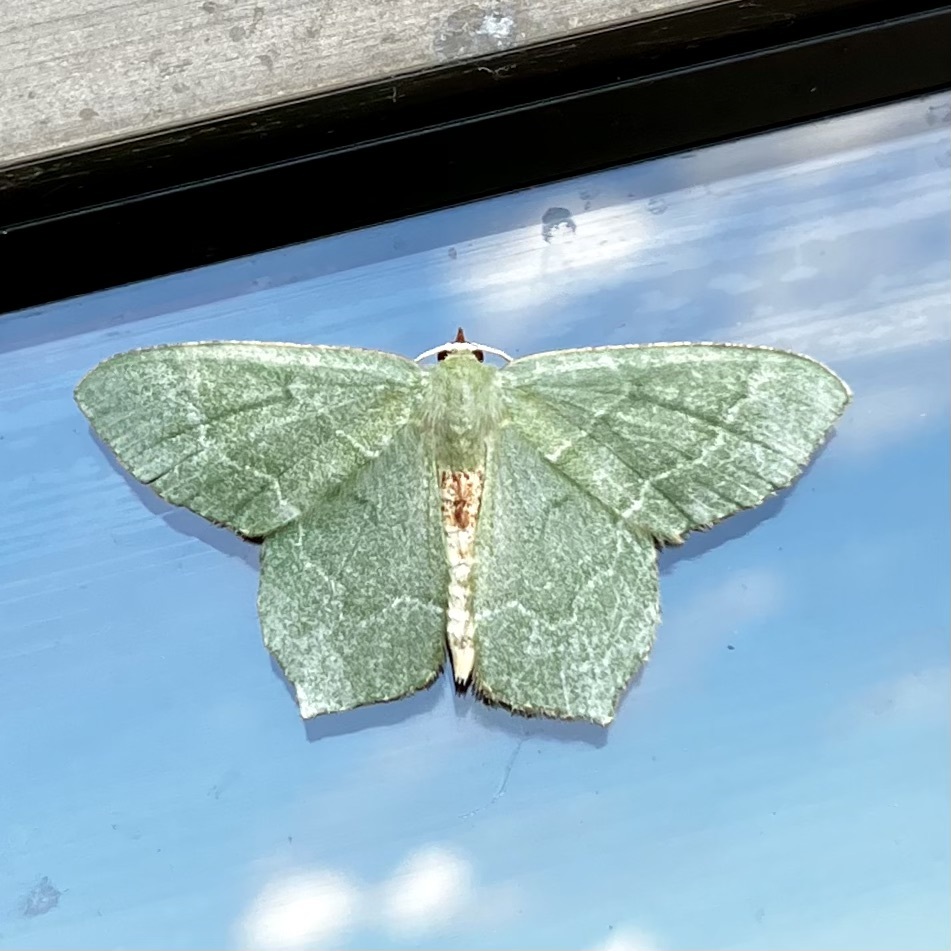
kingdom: Animalia
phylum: Arthropoda
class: Insecta
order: Lepidoptera
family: Geometridae
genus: Hemithea
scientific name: Hemithea aestivaria
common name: Common emerald
